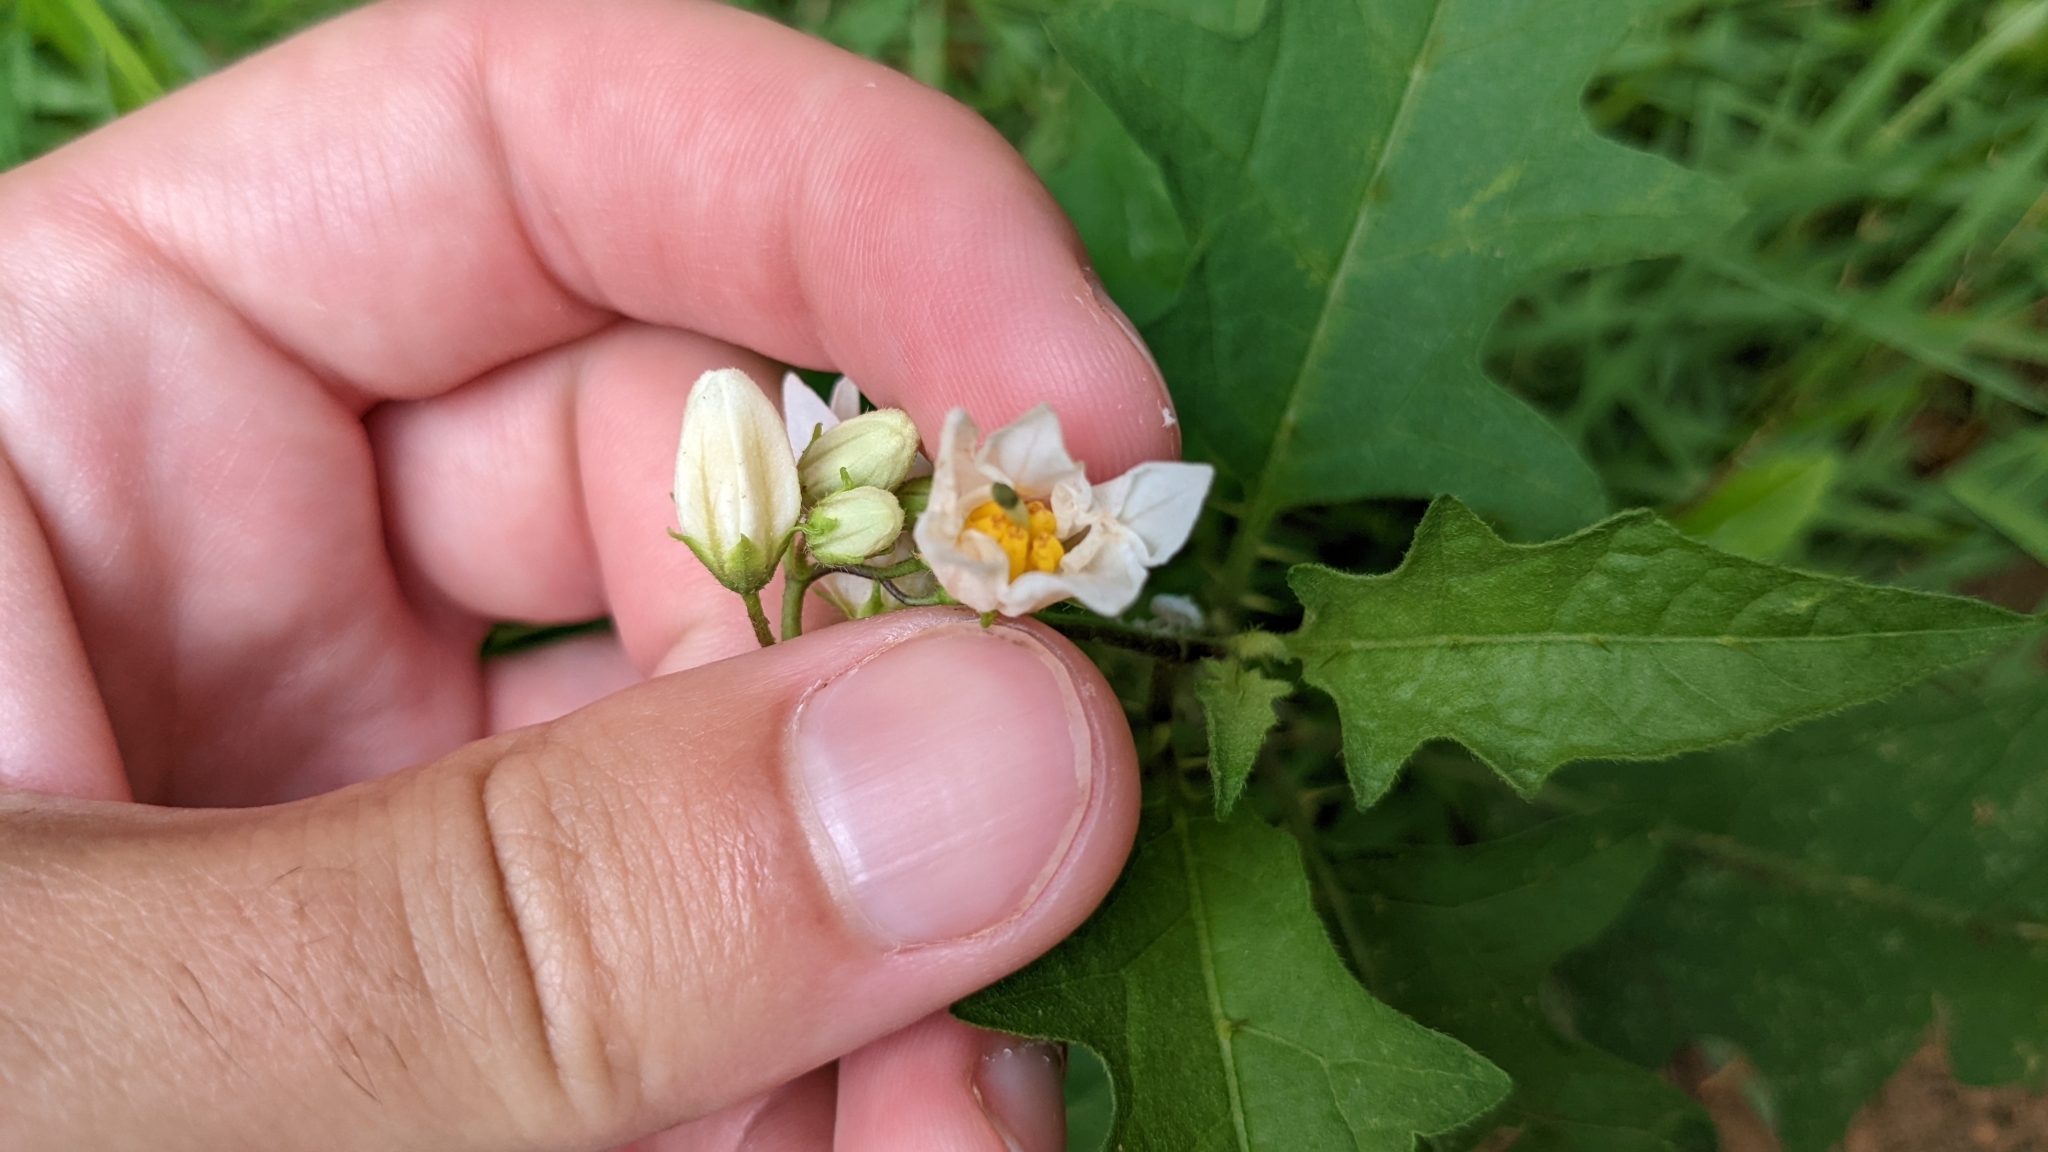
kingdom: Plantae
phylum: Tracheophyta
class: Magnoliopsida
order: Solanales
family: Solanaceae
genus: Solanum
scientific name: Solanum carolinense
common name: Horse-nettle
